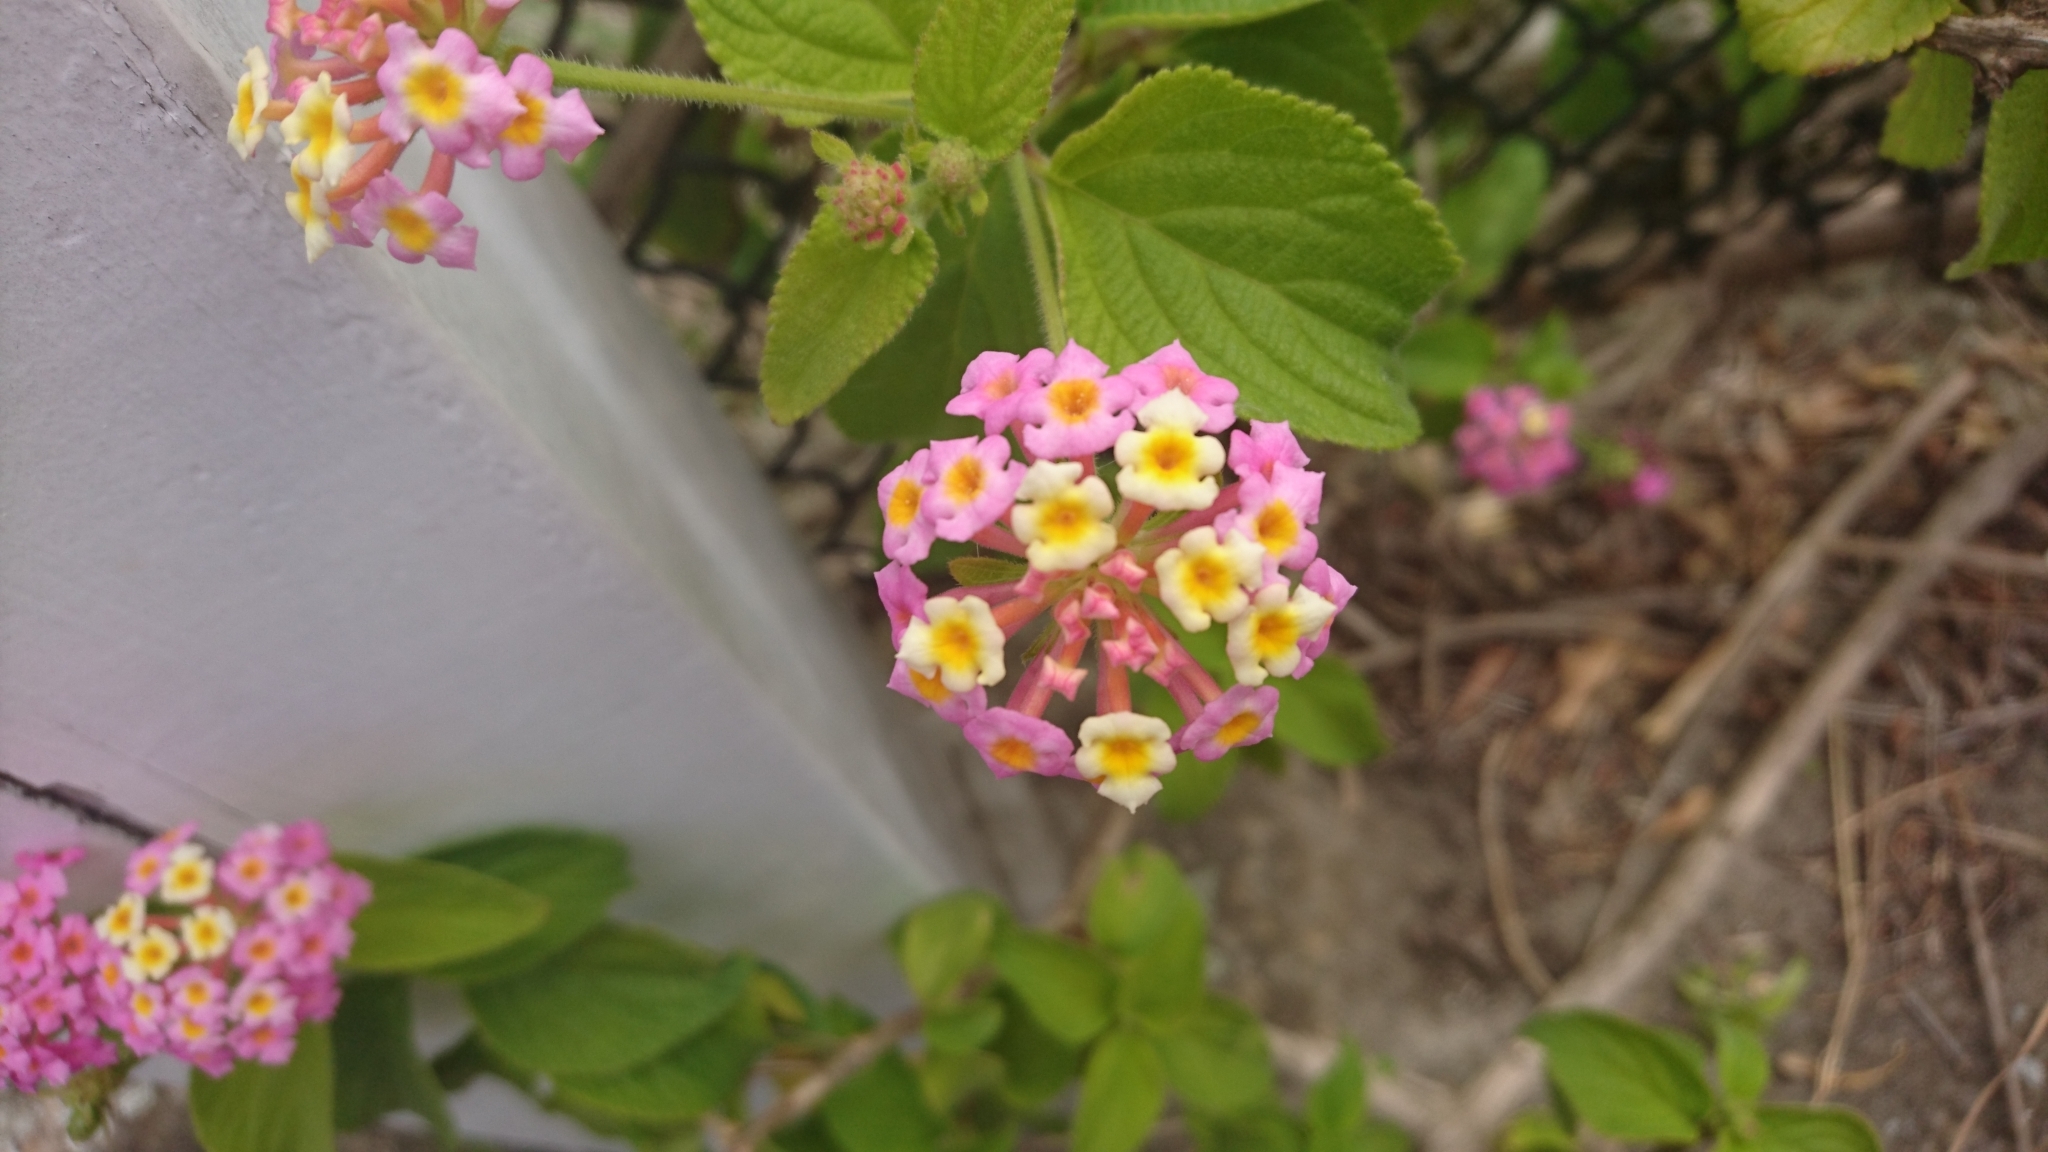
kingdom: Plantae
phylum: Tracheophyta
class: Magnoliopsida
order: Lamiales
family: Verbenaceae
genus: Lantana
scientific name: Lantana camara
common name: Lantana
